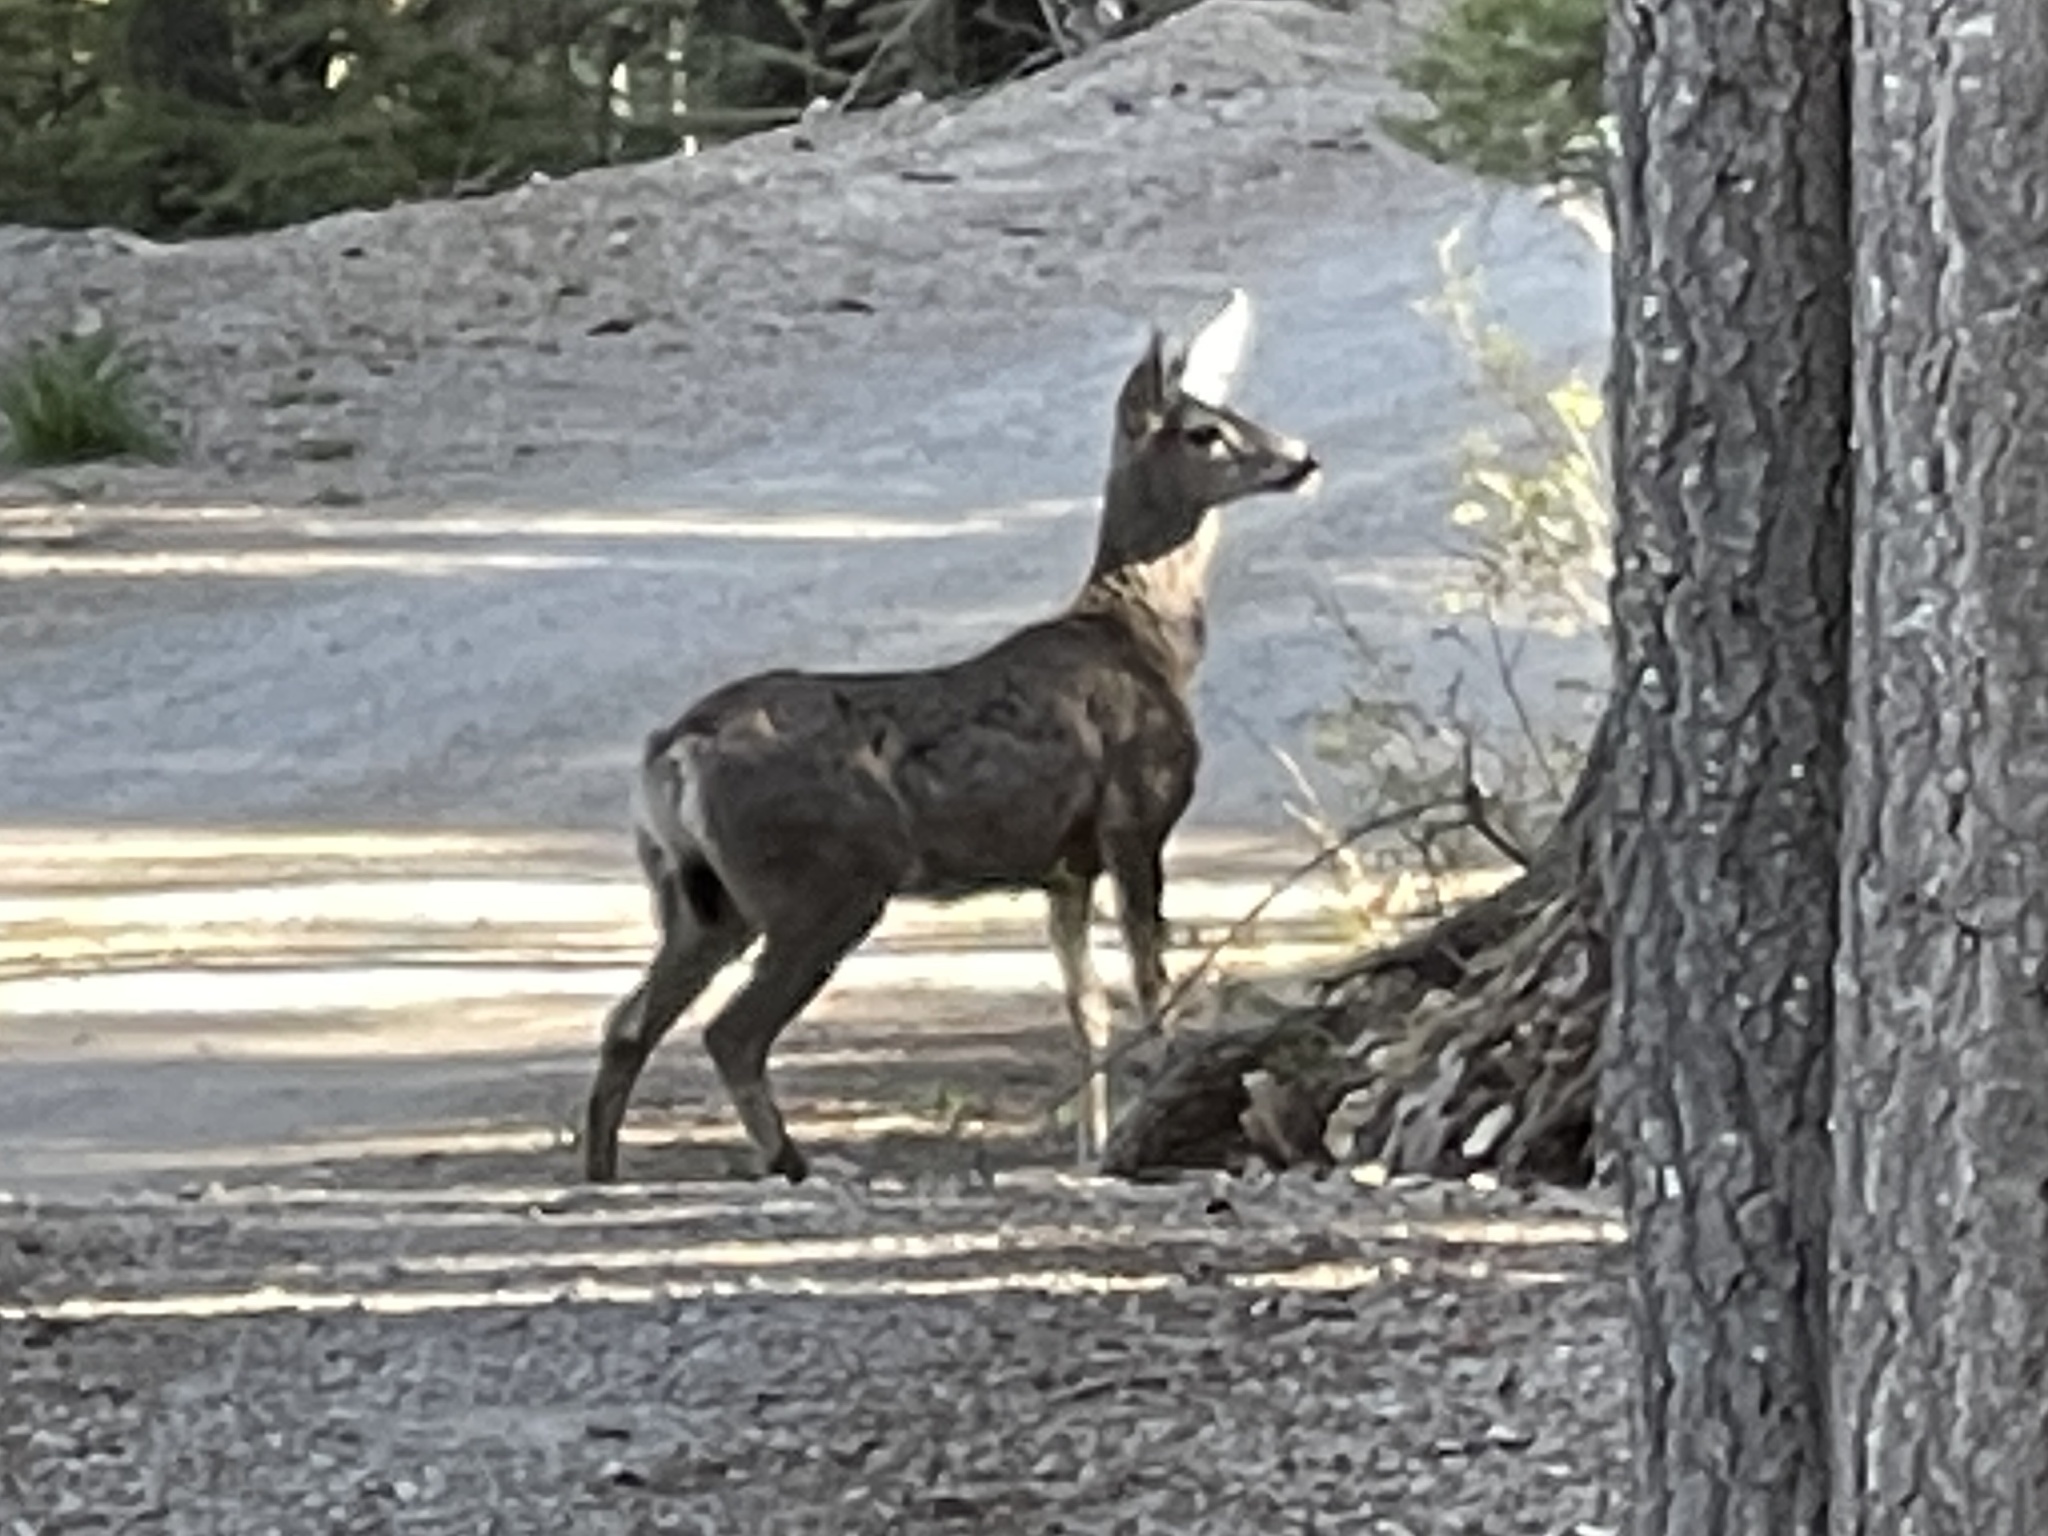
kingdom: Animalia
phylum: Chordata
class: Mammalia
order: Artiodactyla
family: Cervidae
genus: Odocoileus
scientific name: Odocoileus hemionus
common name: Mule deer
